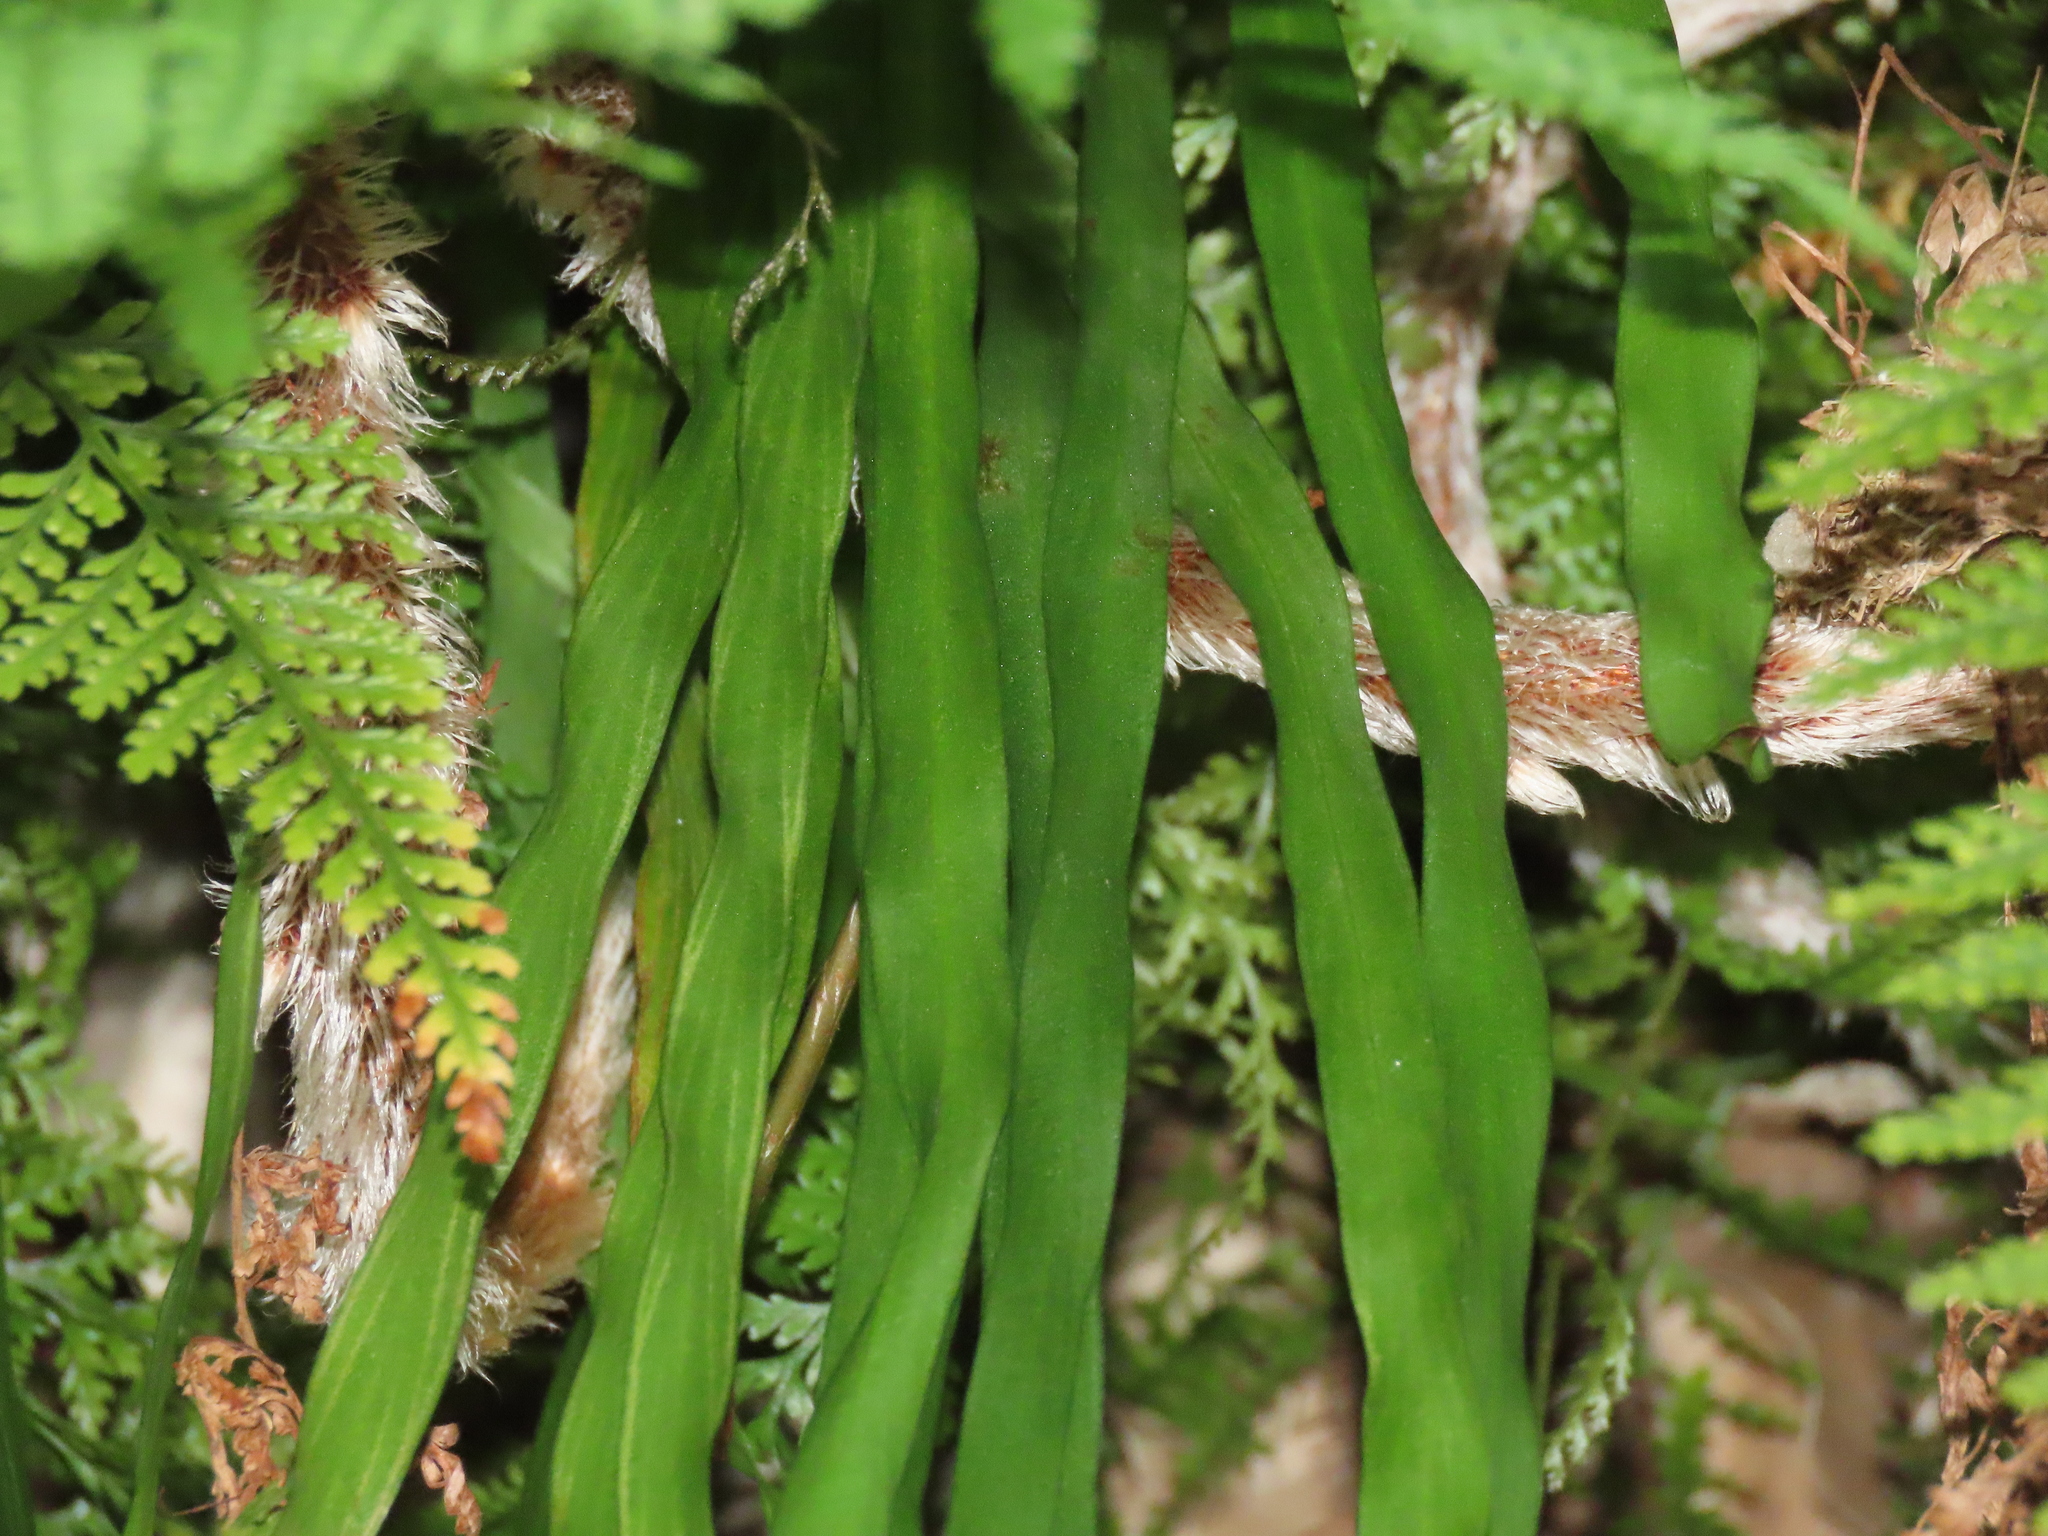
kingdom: Plantae
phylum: Tracheophyta
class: Polypodiopsida
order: Polypodiales
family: Pteridaceae
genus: Haplopteris
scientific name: Haplopteris elongata
